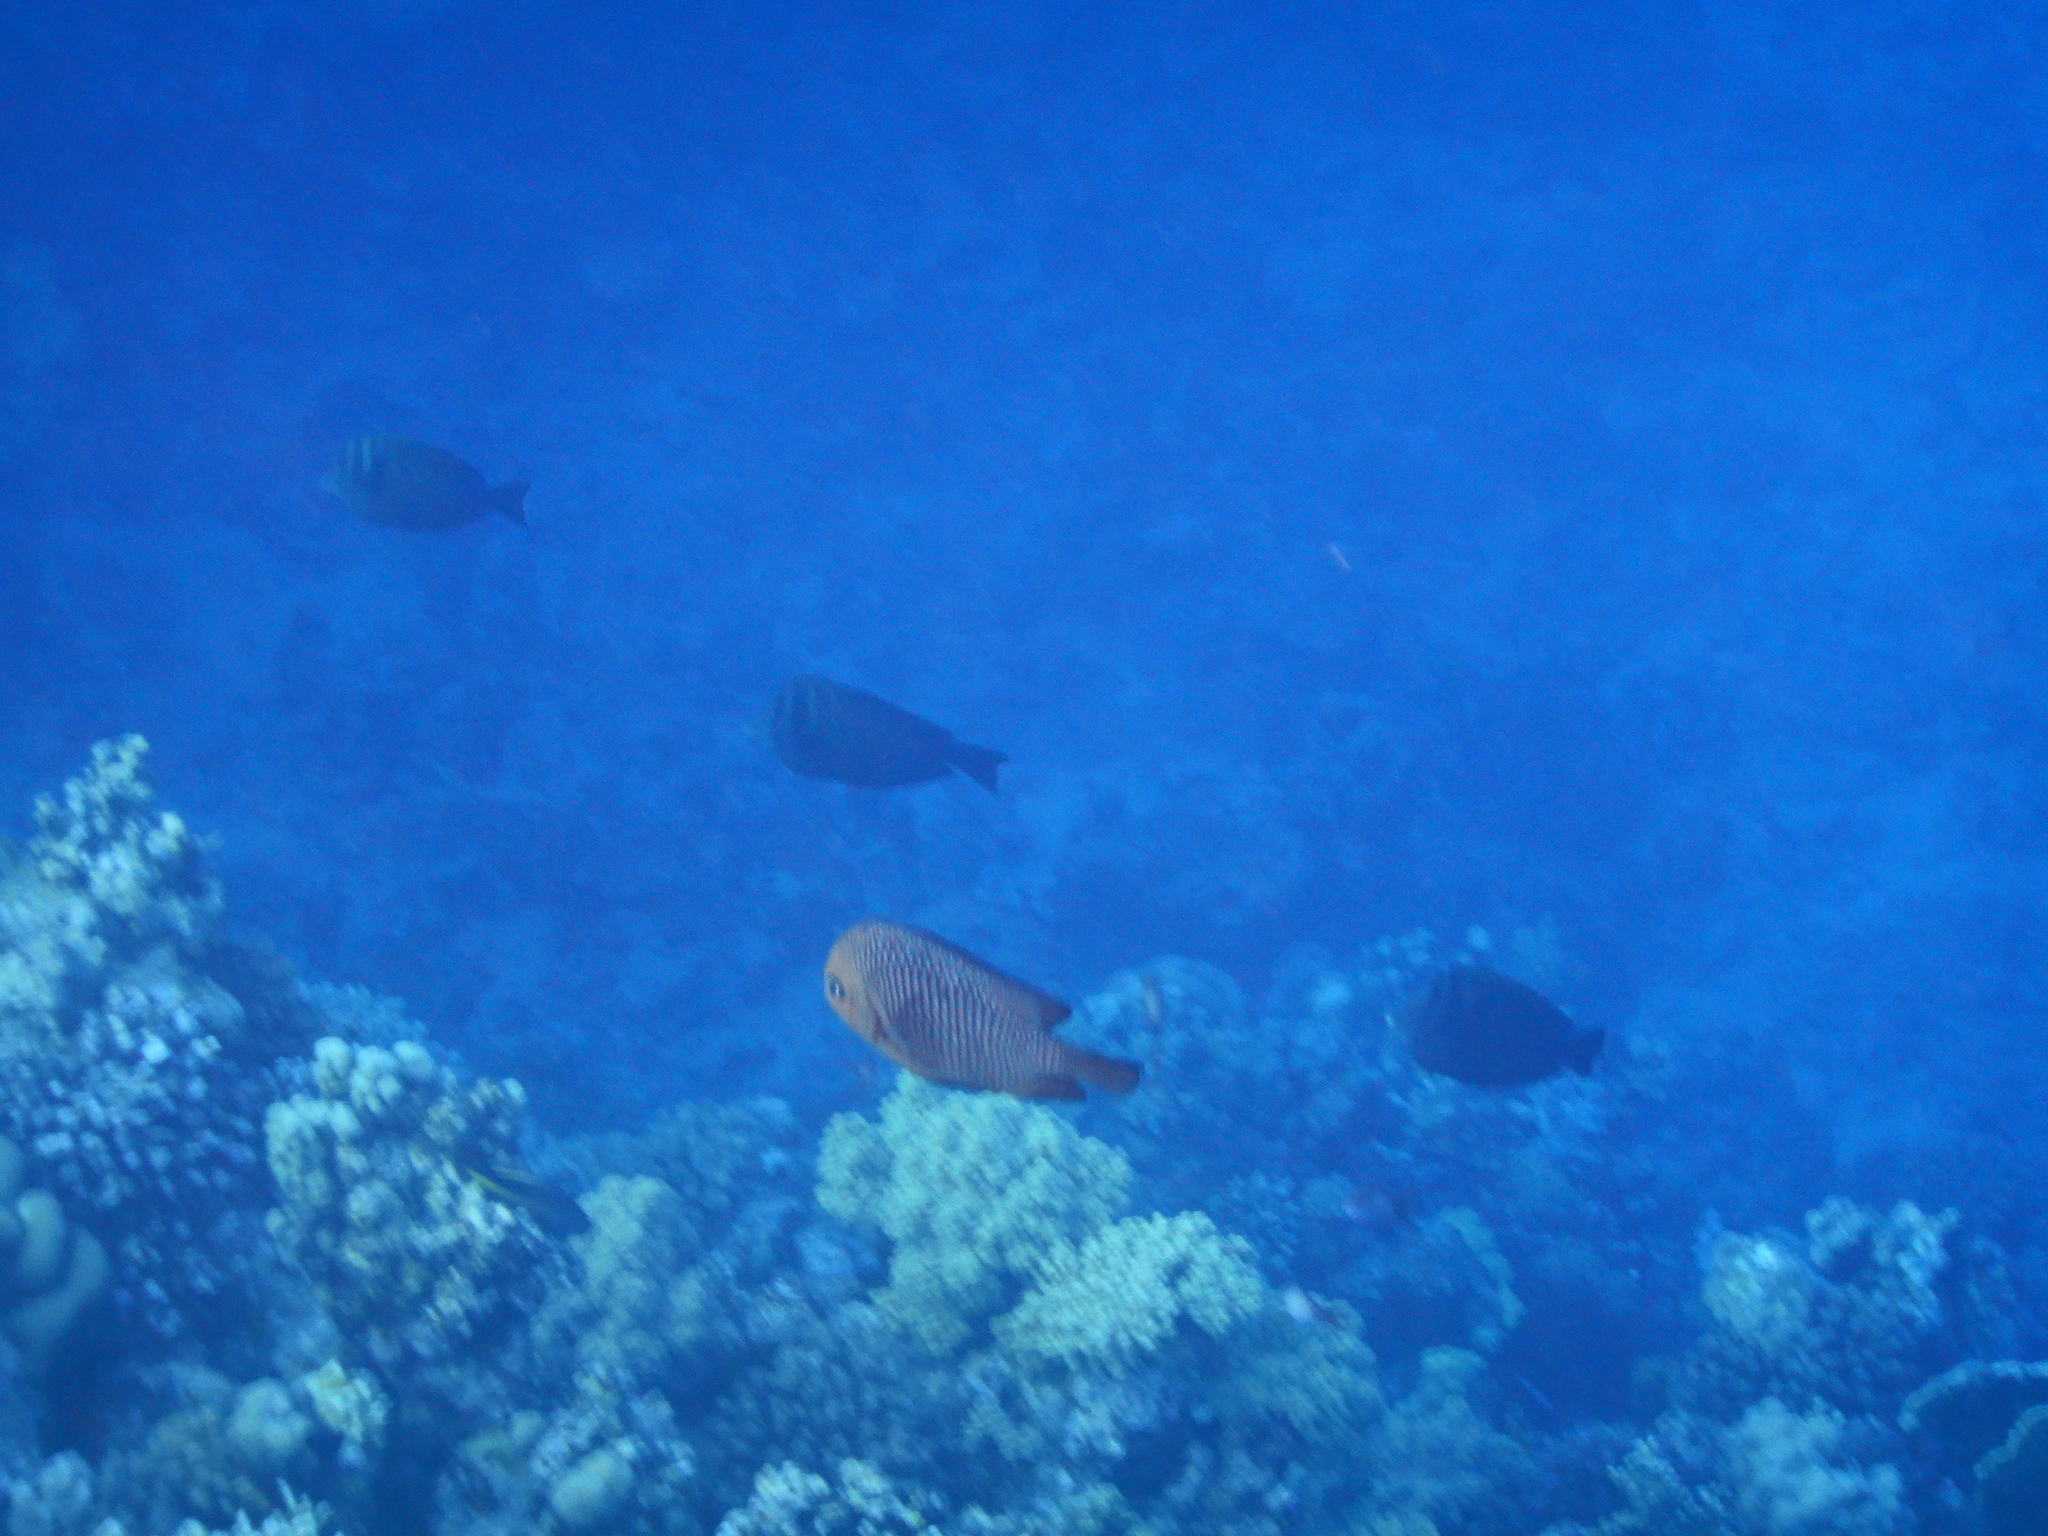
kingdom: Animalia
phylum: Chordata
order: Perciformes
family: Pomacentridae
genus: Dascyllus
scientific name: Dascyllus trimaculatus
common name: Threespot dascyllus
